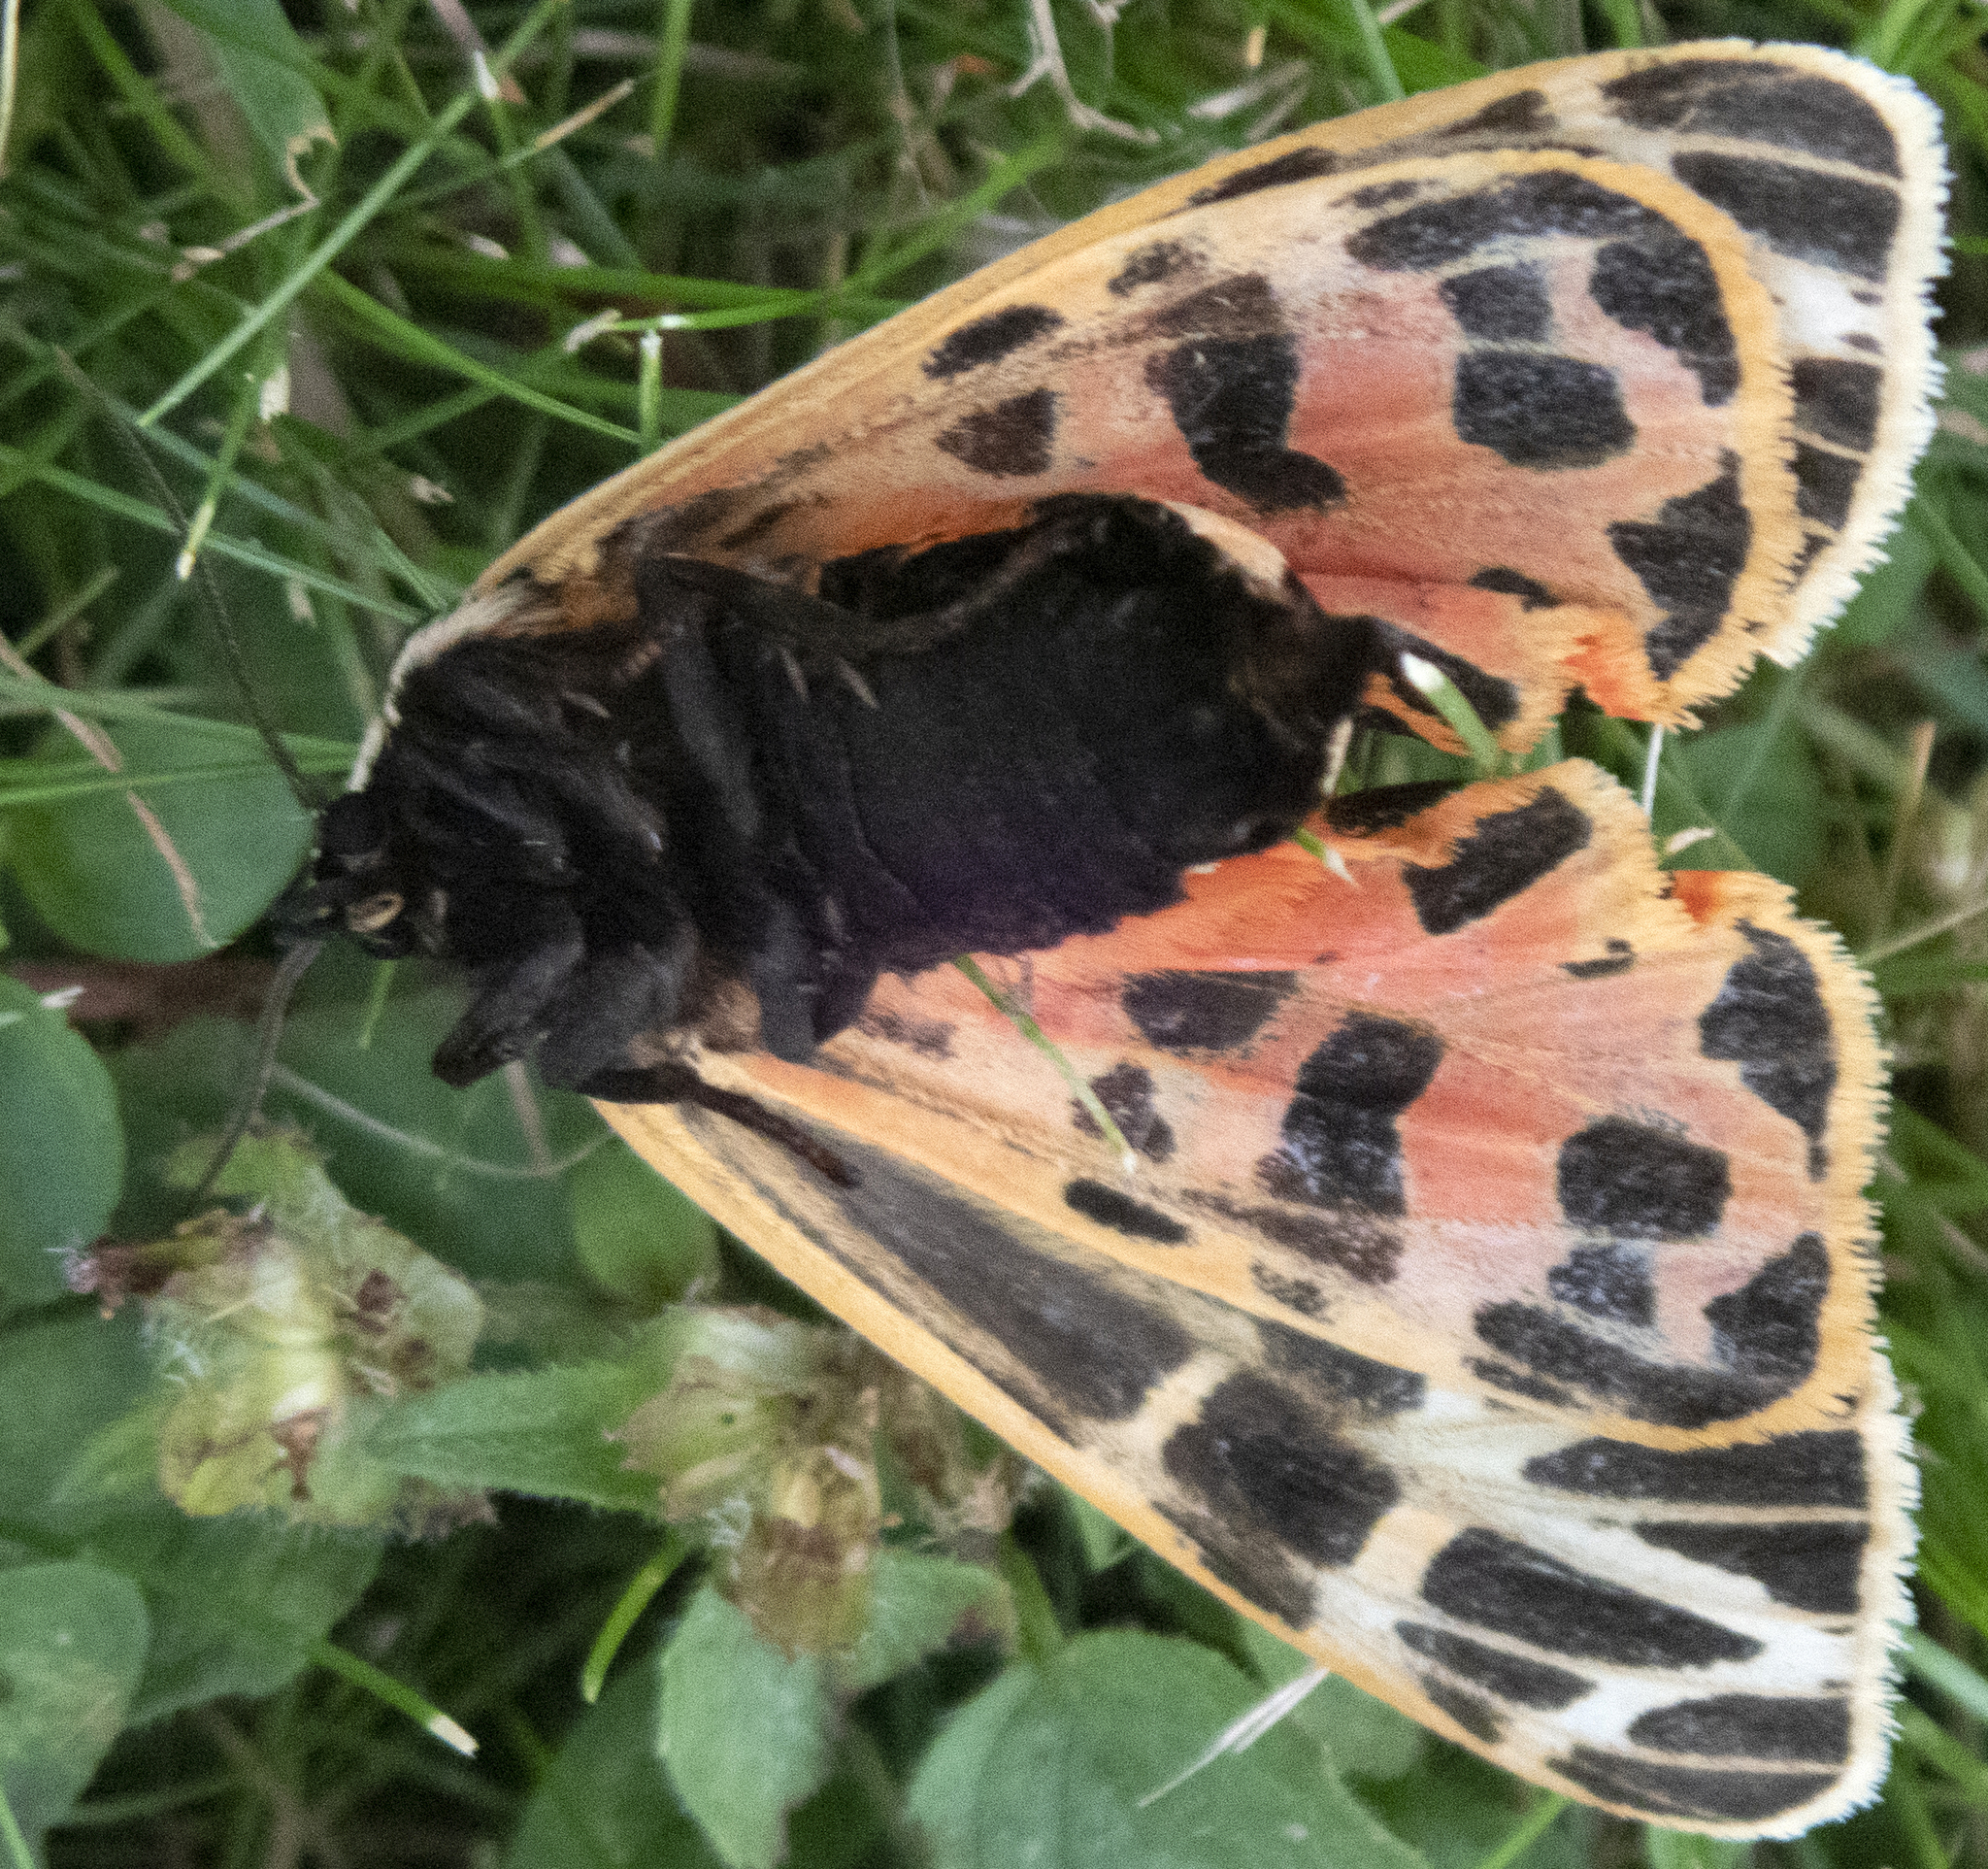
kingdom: Animalia
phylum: Arthropoda
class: Insecta
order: Lepidoptera
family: Erebidae
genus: Grammia
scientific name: Grammia virgo
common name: Virgin tiger moth
